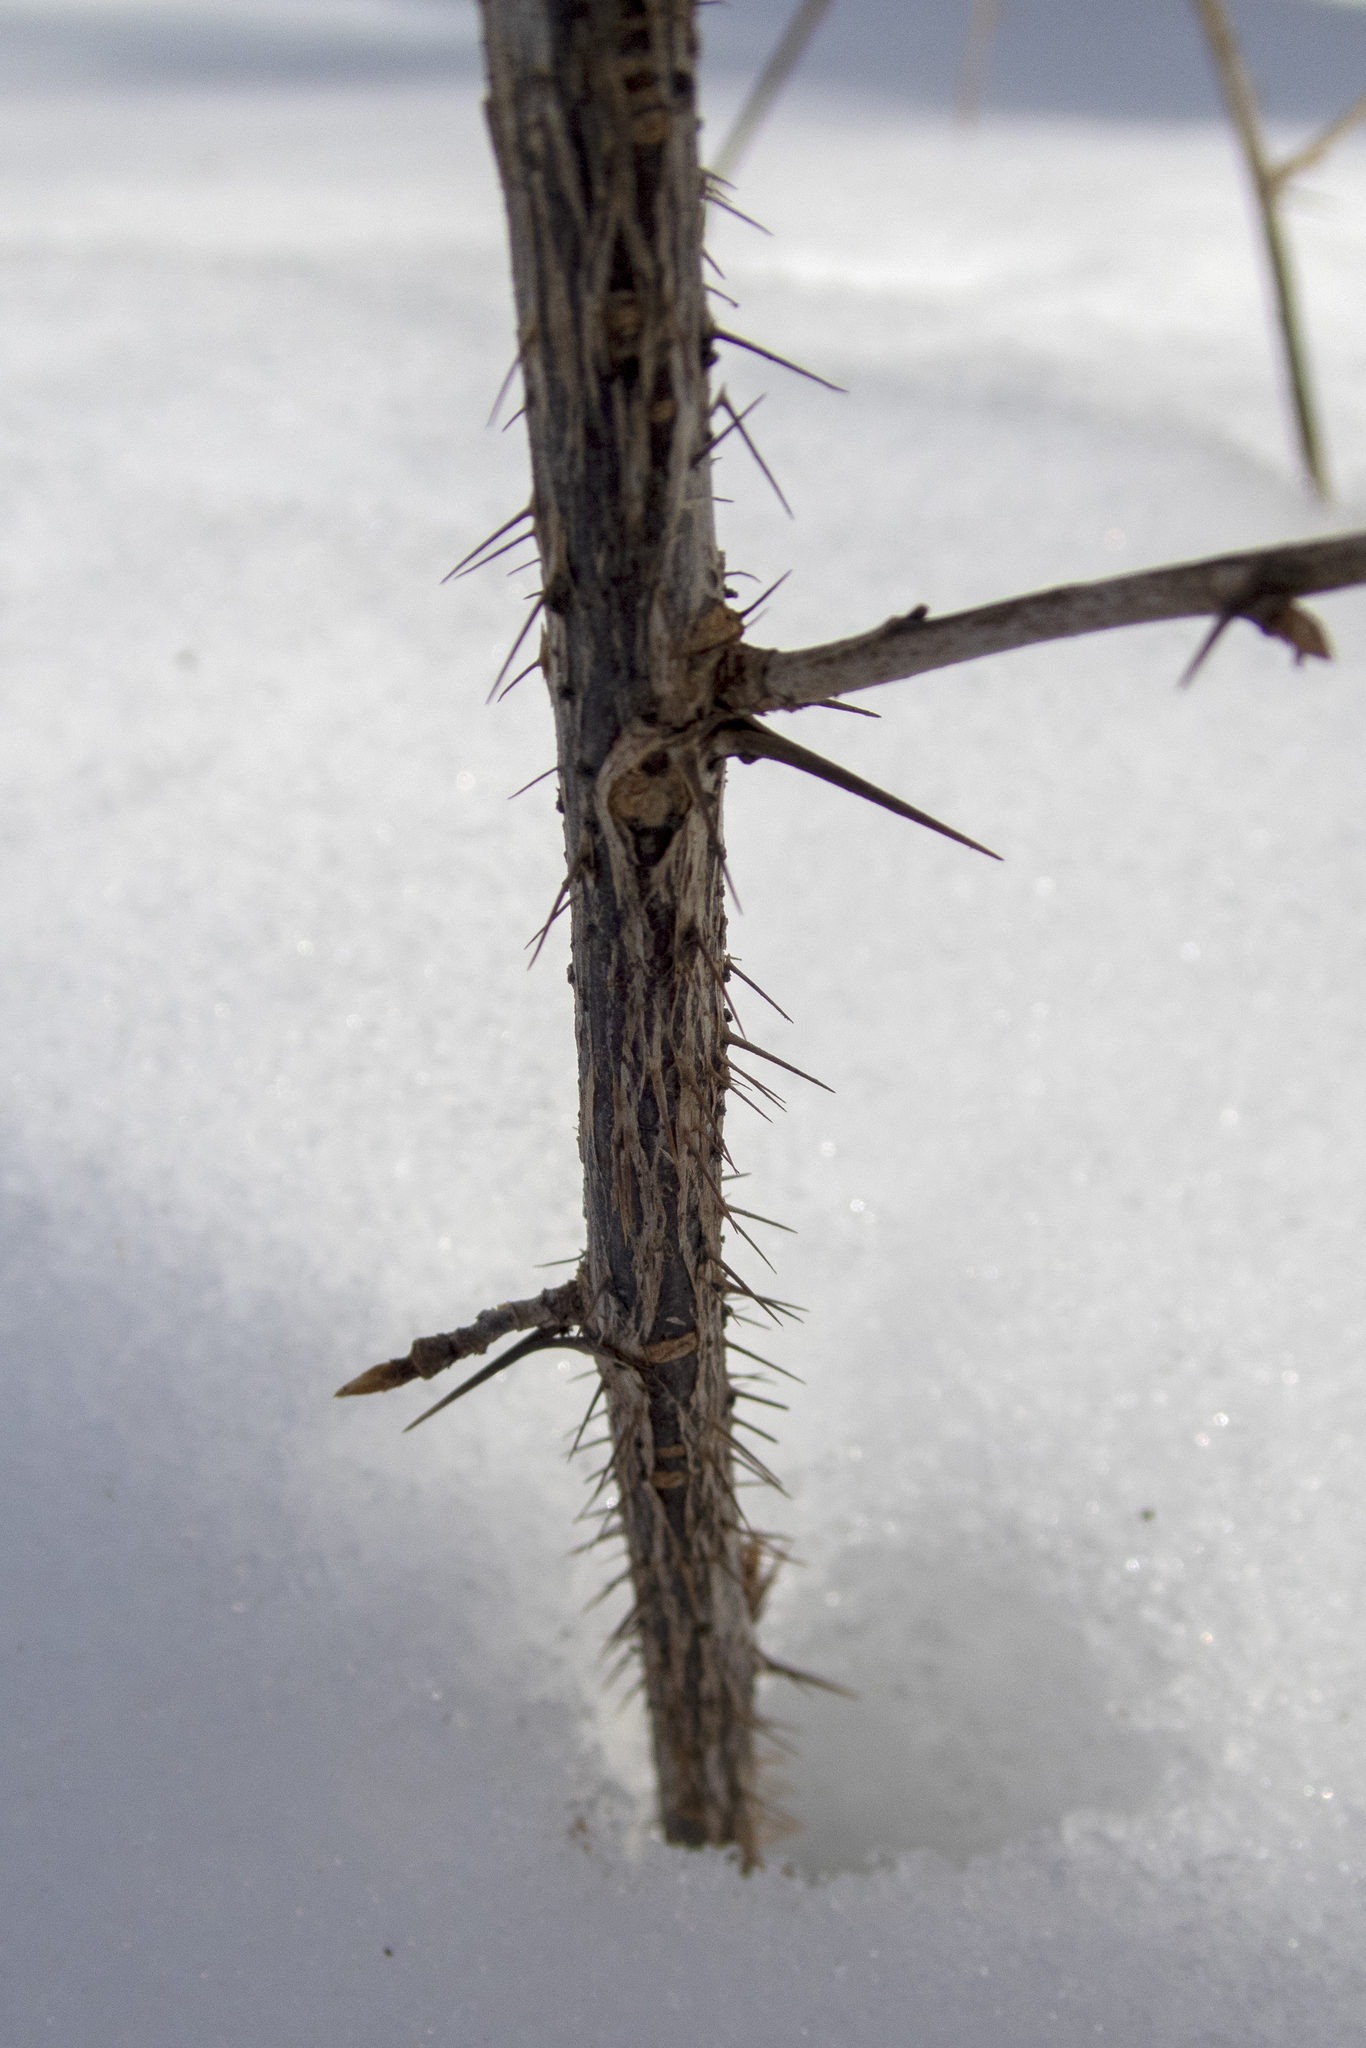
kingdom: Plantae
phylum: Tracheophyta
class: Magnoliopsida
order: Saxifragales
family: Grossulariaceae
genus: Ribes
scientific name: Ribes cynosbati
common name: American gooseberry
